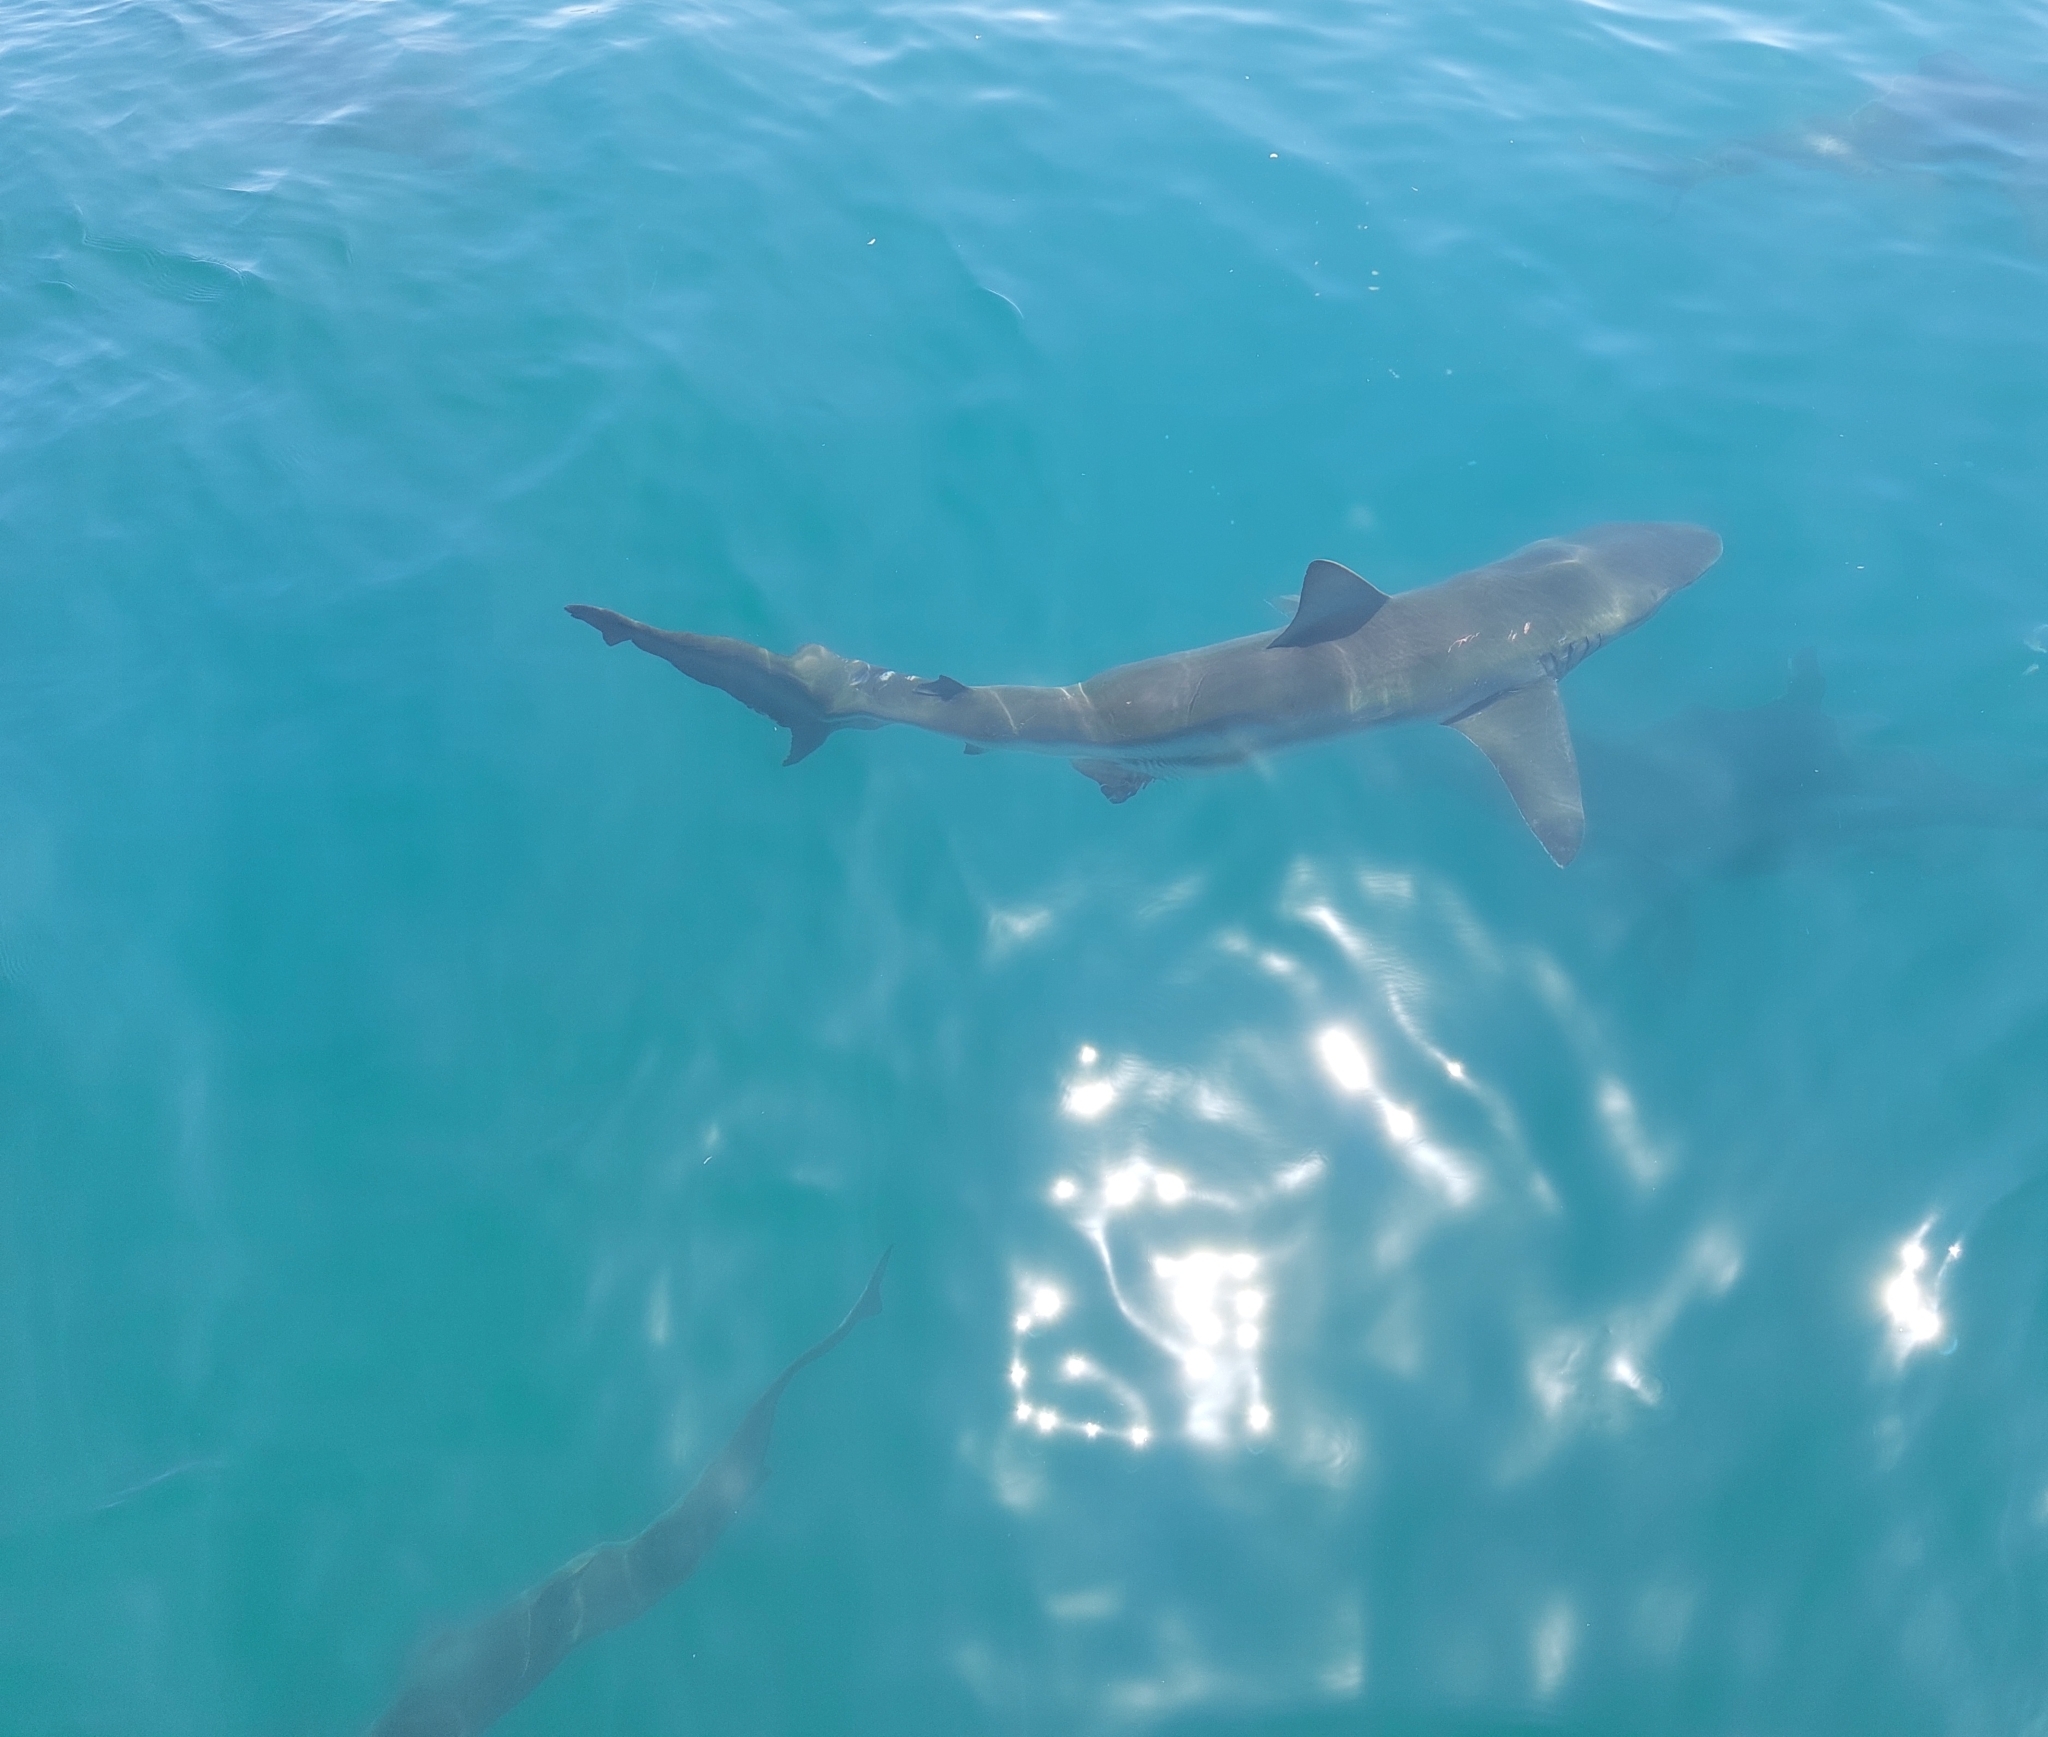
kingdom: Animalia
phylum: Chordata
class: Elasmobranchii
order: Carcharhiniformes
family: Carcharhinidae
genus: Carcharhinus
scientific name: Carcharhinus brachyurus
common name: Bronze whaler
